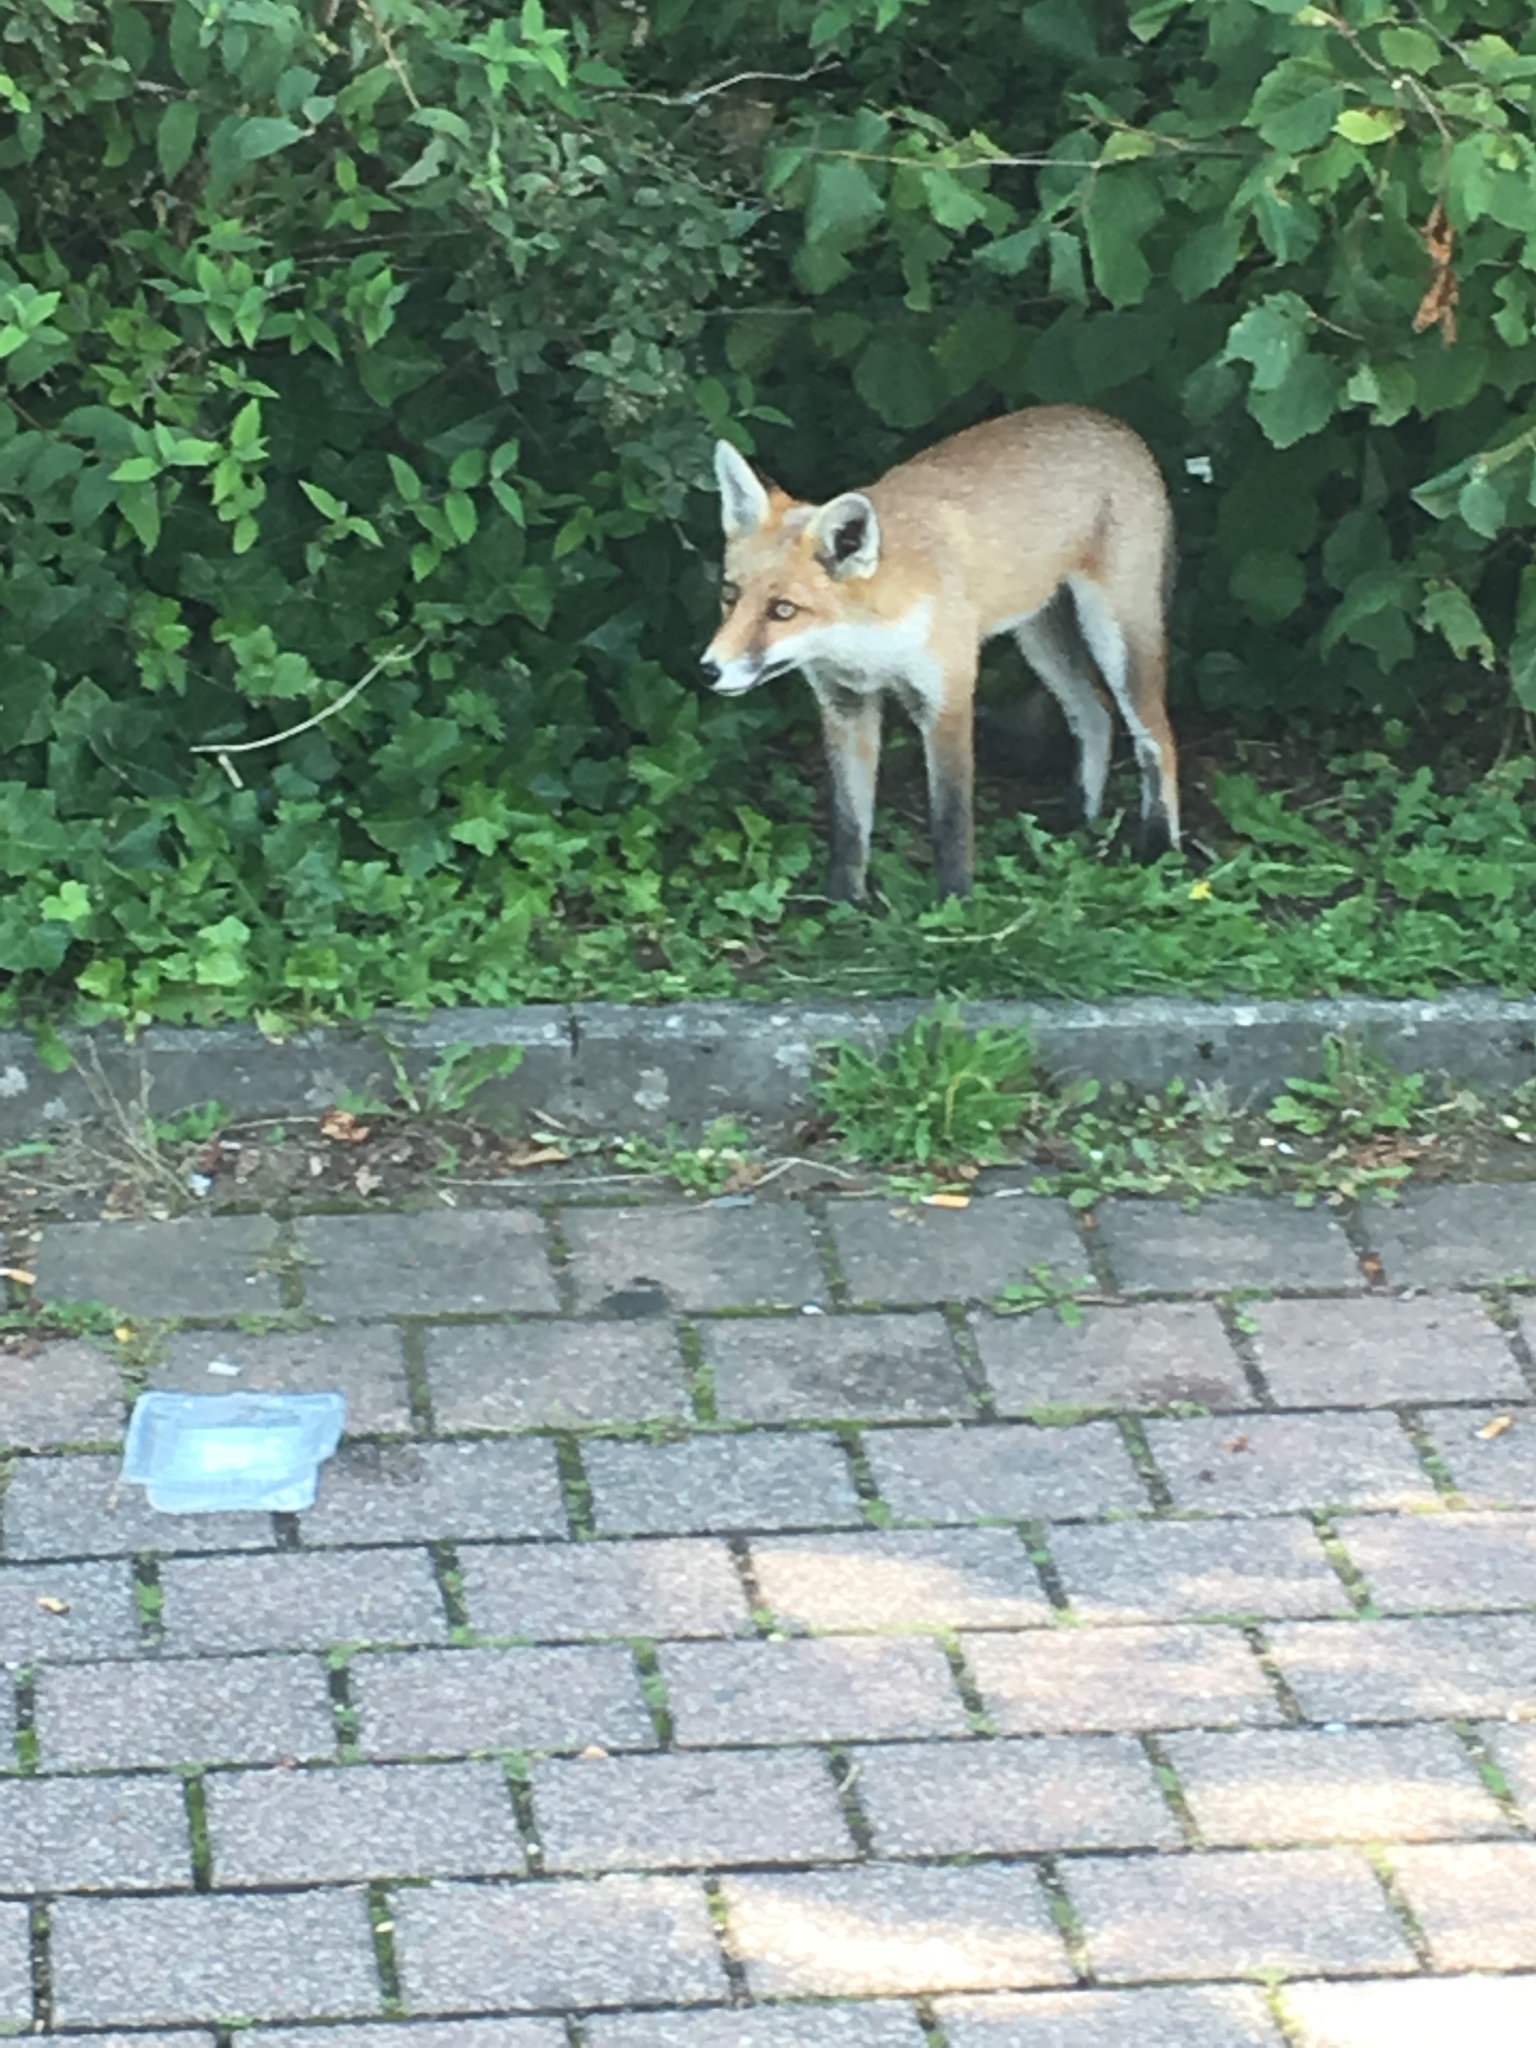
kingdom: Animalia
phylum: Chordata
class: Mammalia
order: Carnivora
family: Canidae
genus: Vulpes
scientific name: Vulpes vulpes
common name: Red fox
